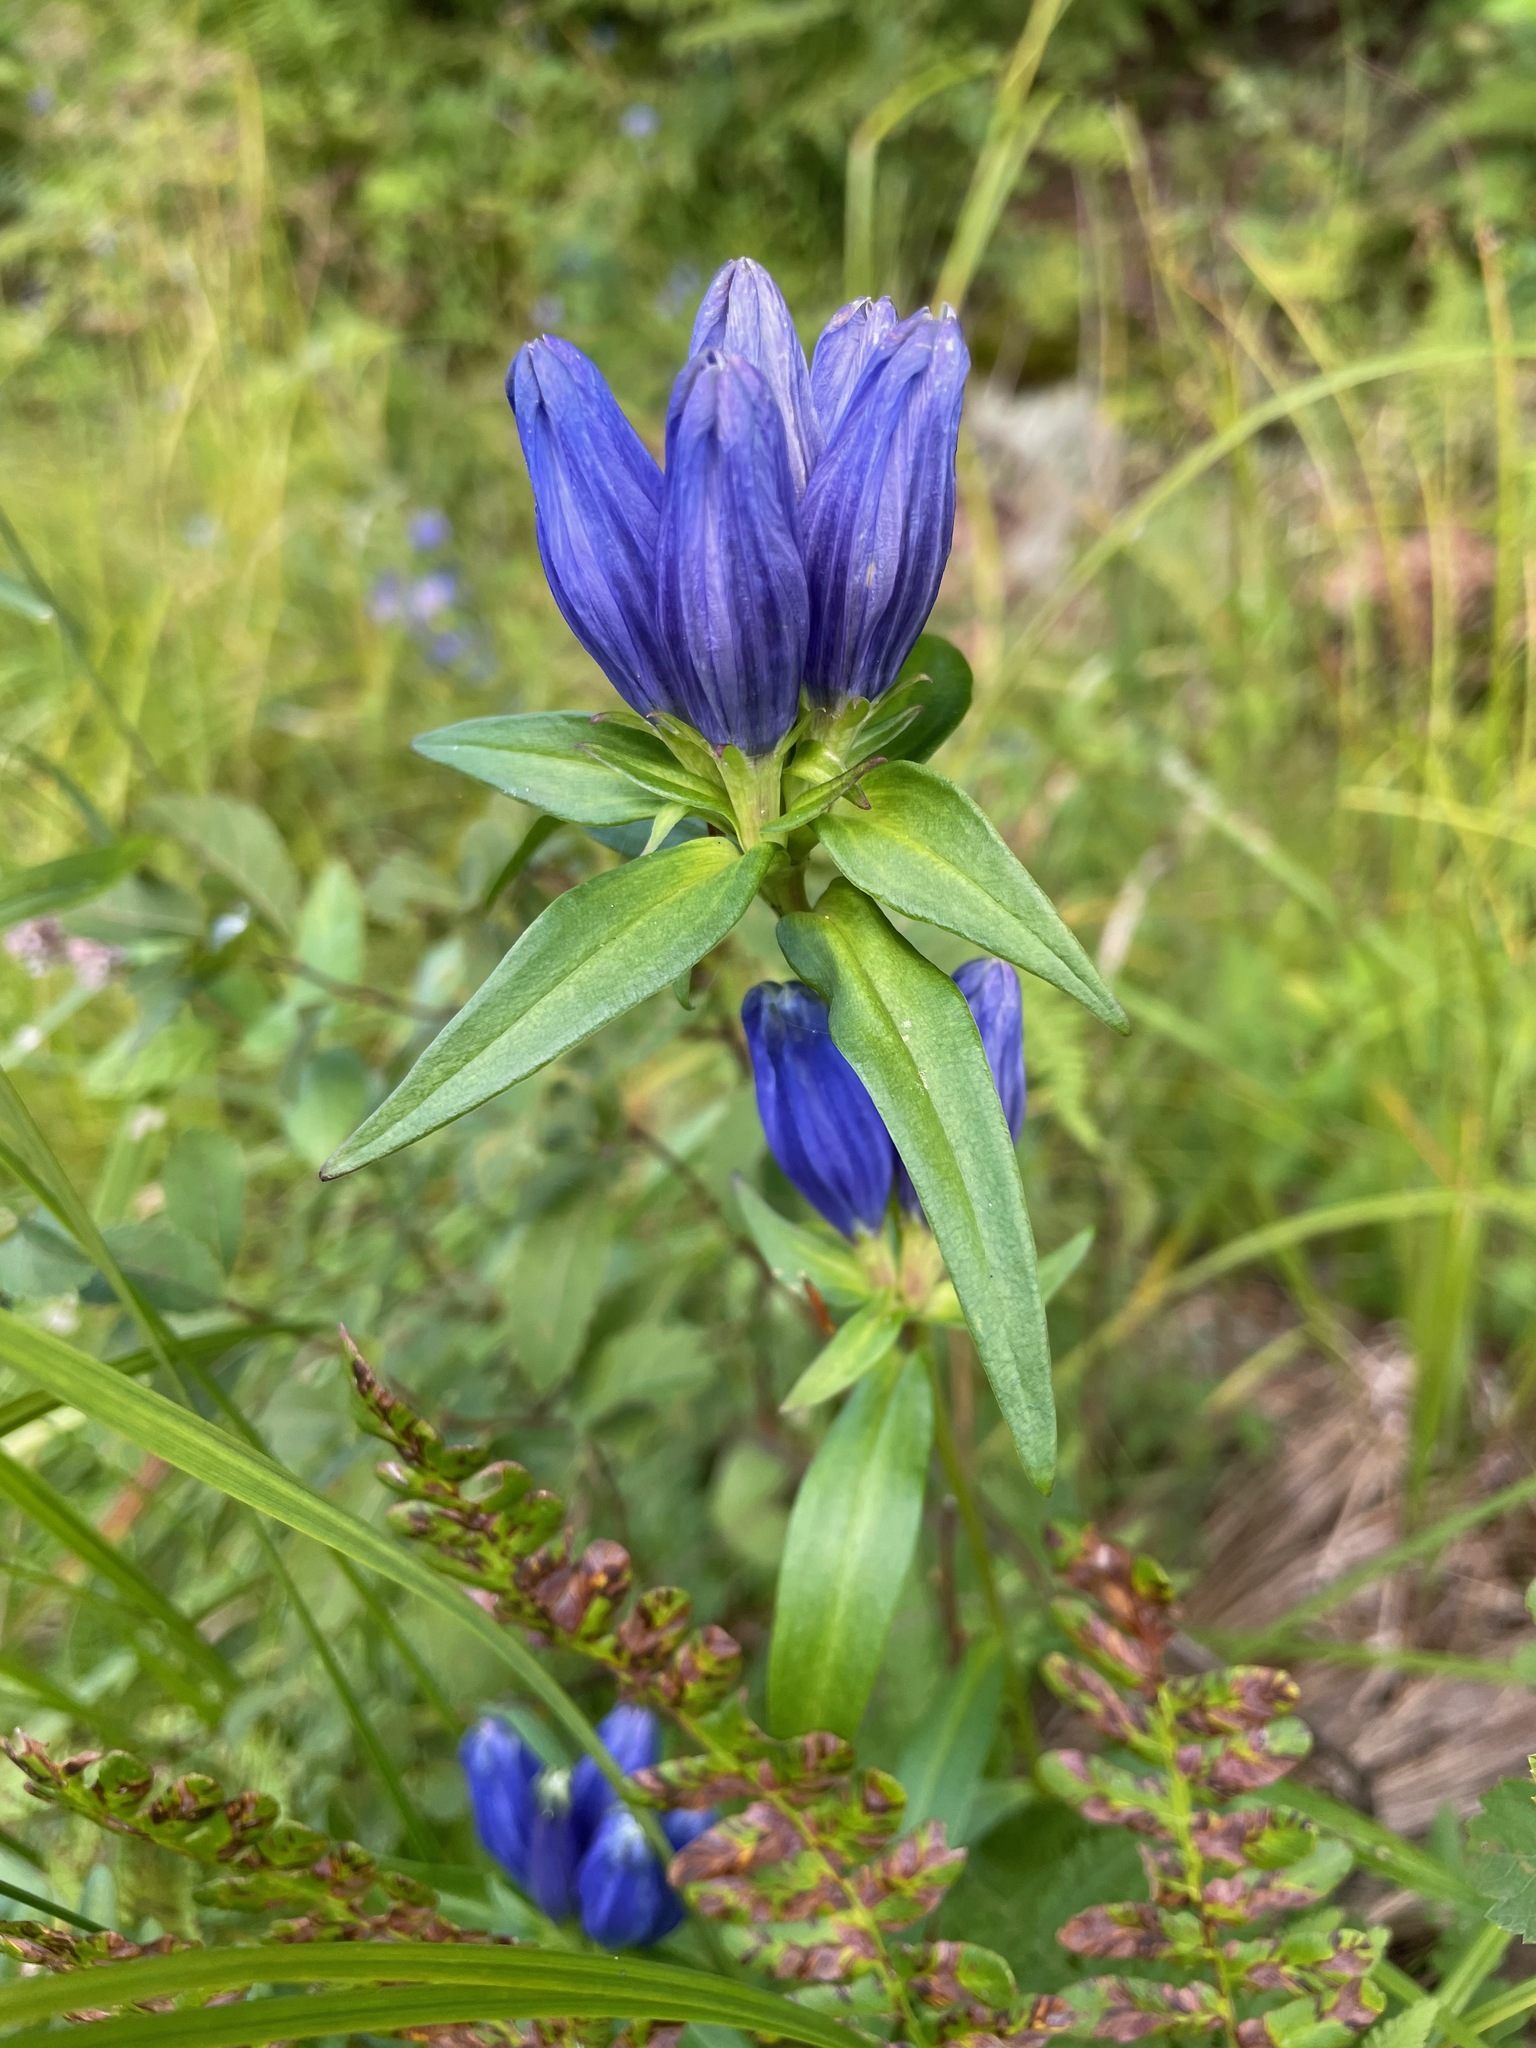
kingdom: Plantae
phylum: Tracheophyta
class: Magnoliopsida
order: Gentianales
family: Gentianaceae
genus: Gentiana
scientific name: Gentiana linearis
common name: Bastard gentian
